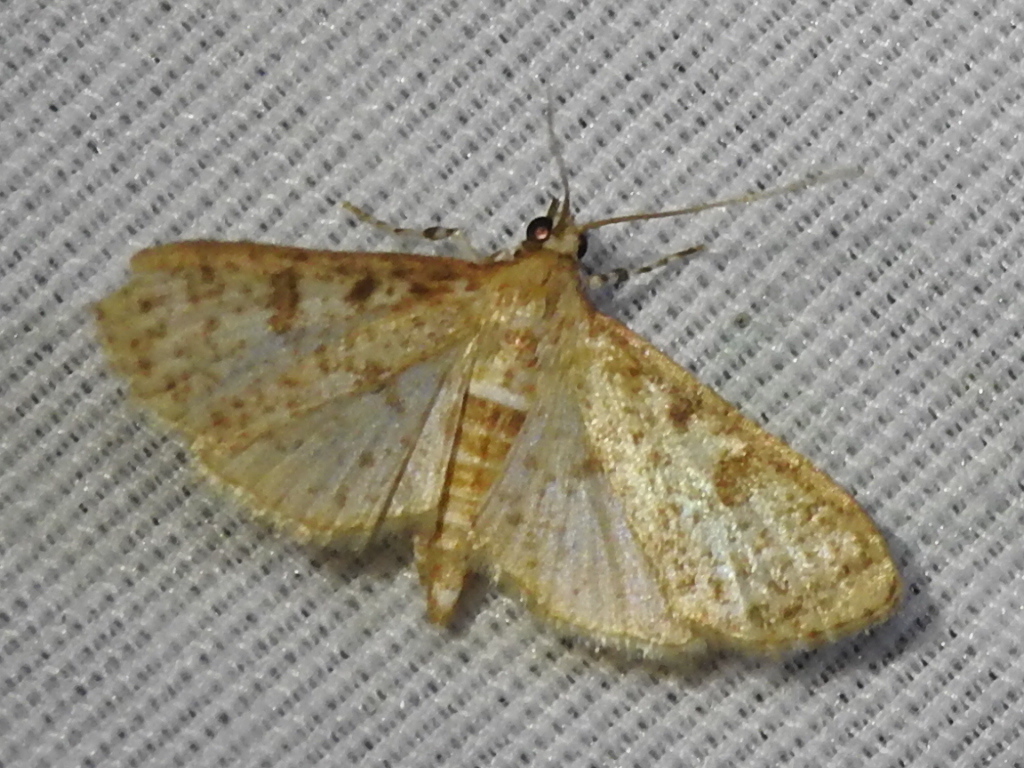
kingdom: Animalia
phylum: Arthropoda
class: Insecta
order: Lepidoptera
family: Crambidae
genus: Palpita
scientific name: Palpita freemanalis
